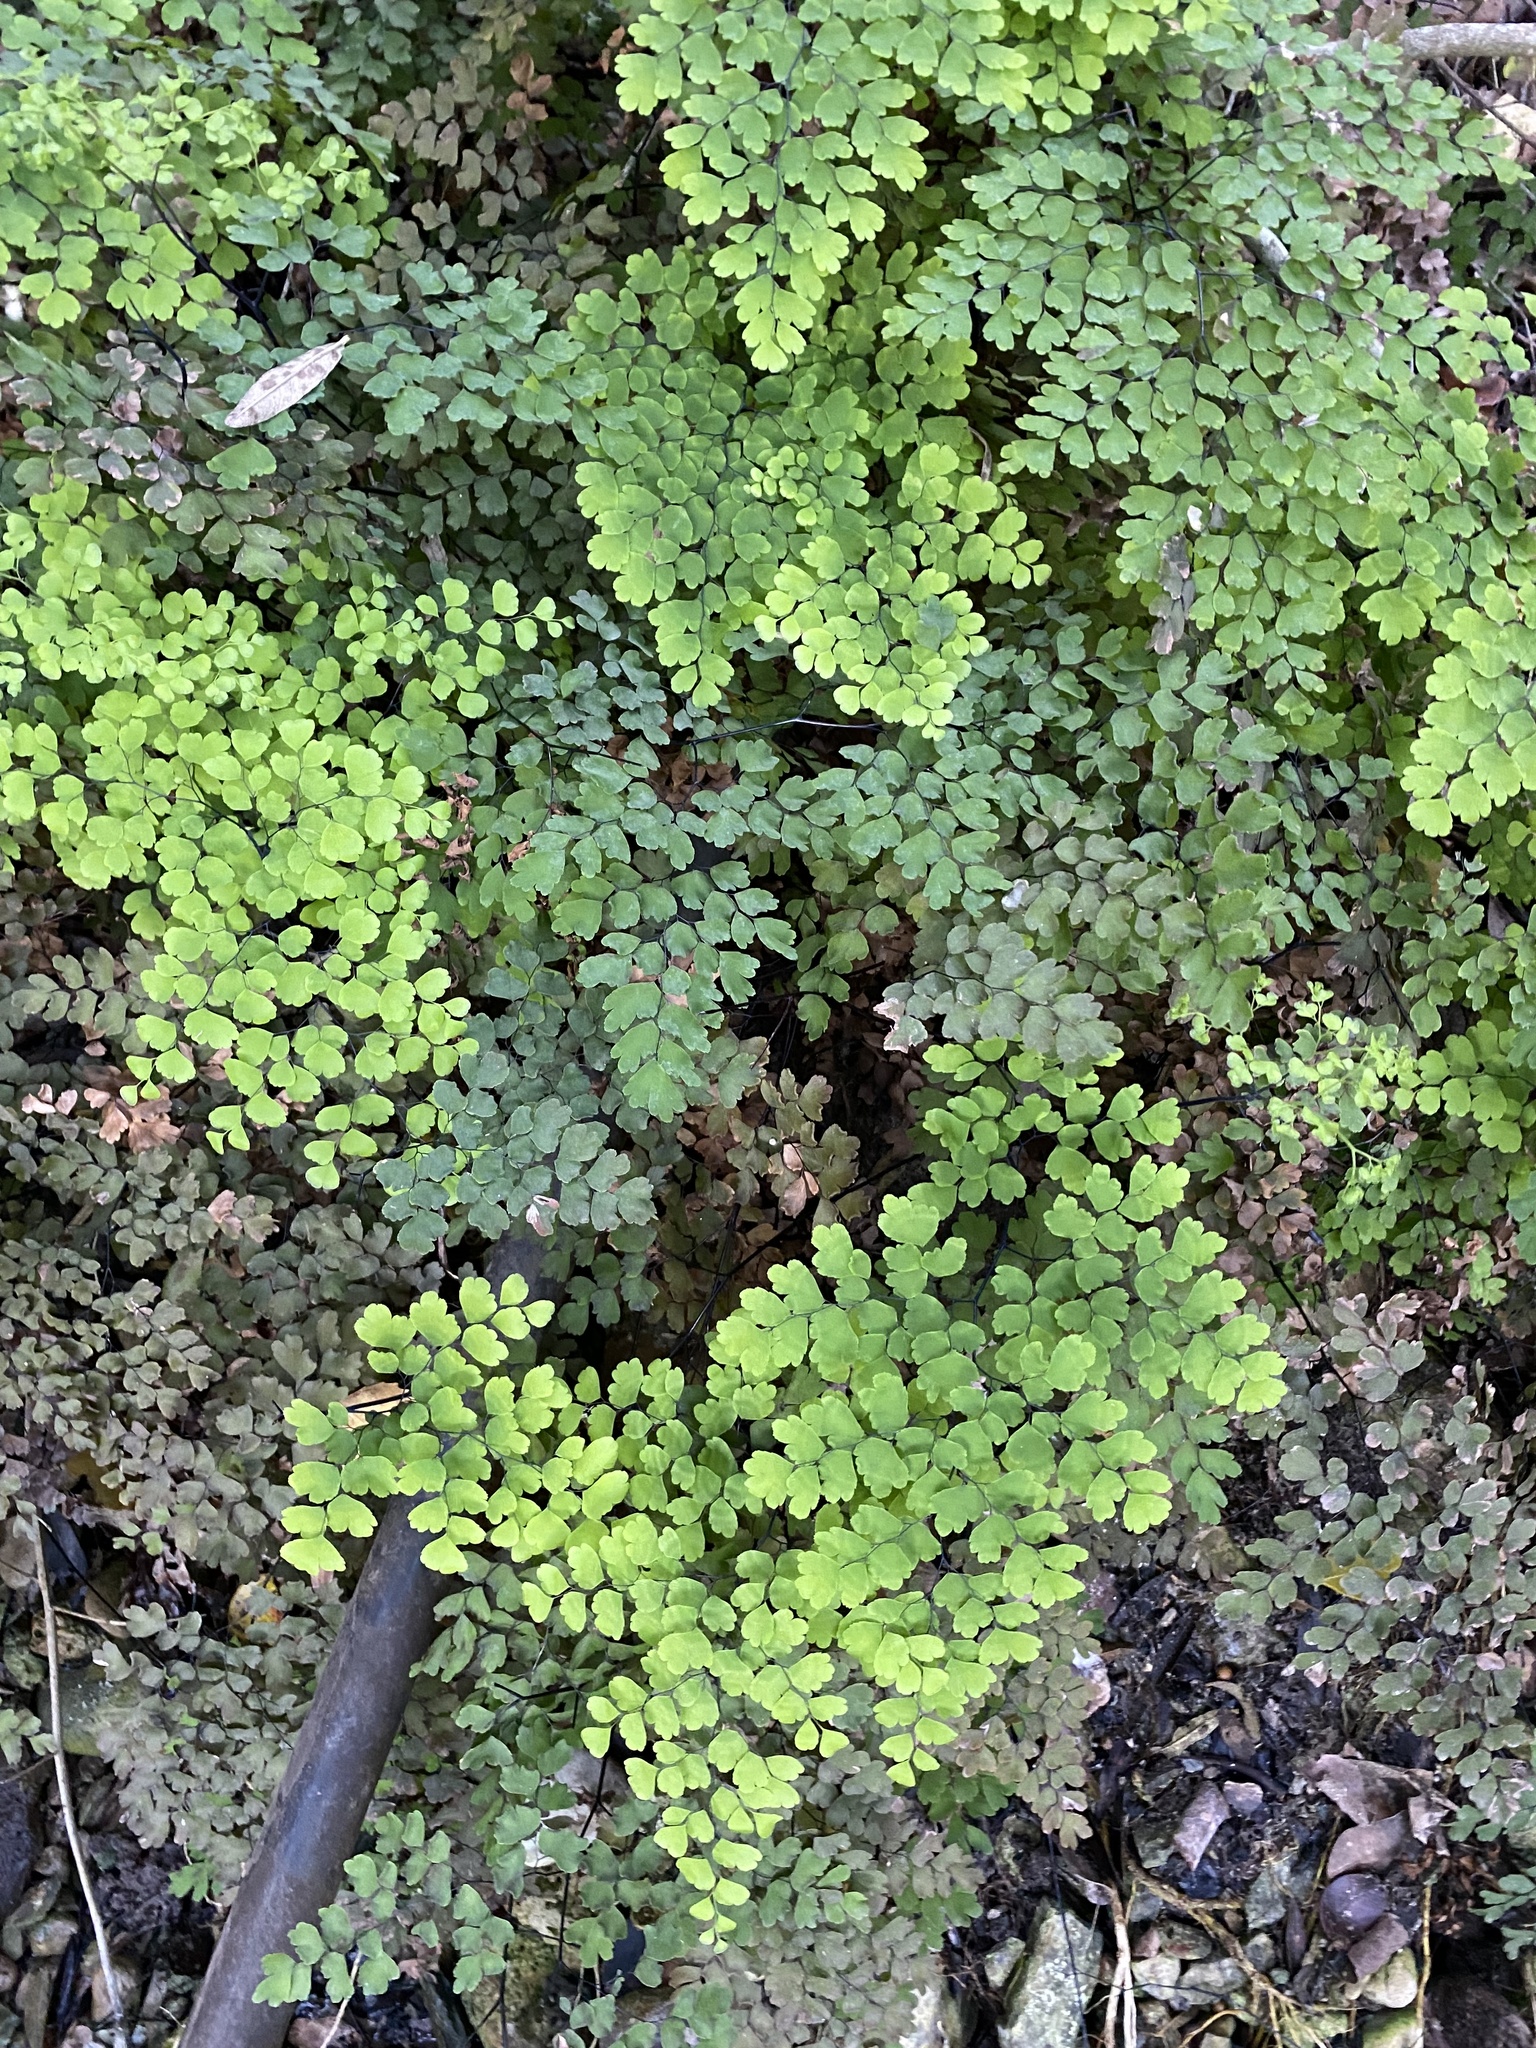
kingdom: Plantae
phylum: Tracheophyta
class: Polypodiopsida
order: Polypodiales
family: Pteridaceae
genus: Adiantum
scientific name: Adiantum capillus-veneris
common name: Maidenhair fern
